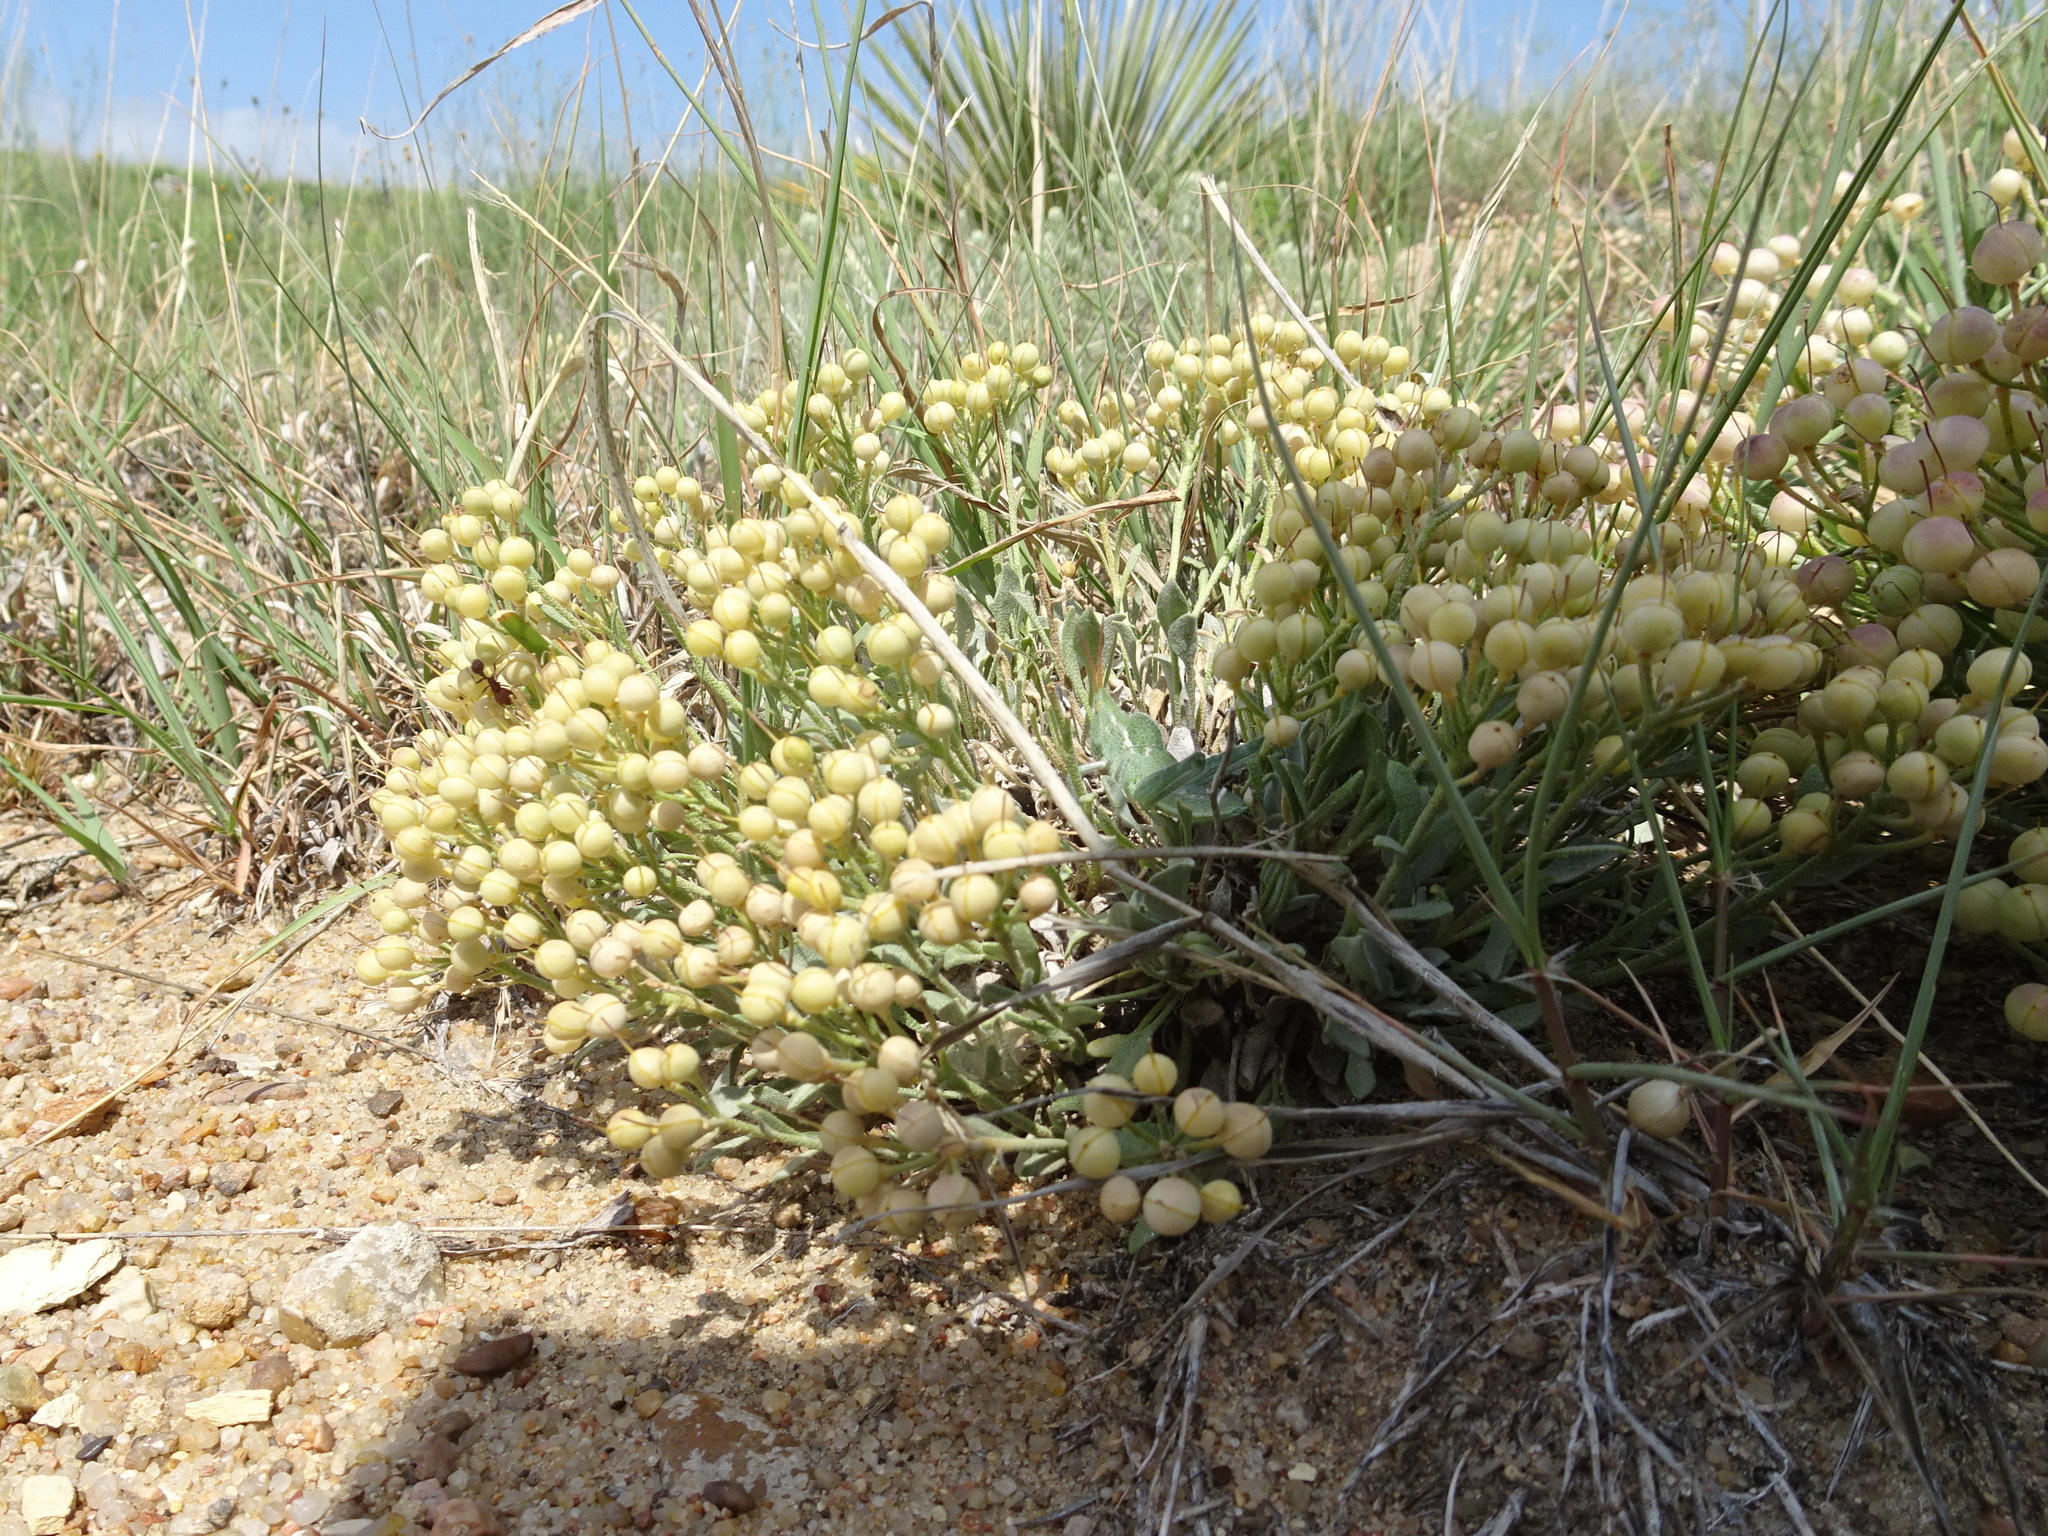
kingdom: Plantae
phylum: Tracheophyta
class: Magnoliopsida
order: Brassicales
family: Brassicaceae
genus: Physaria
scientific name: Physaria ovalifolia
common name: Round-leaf bladderpod
